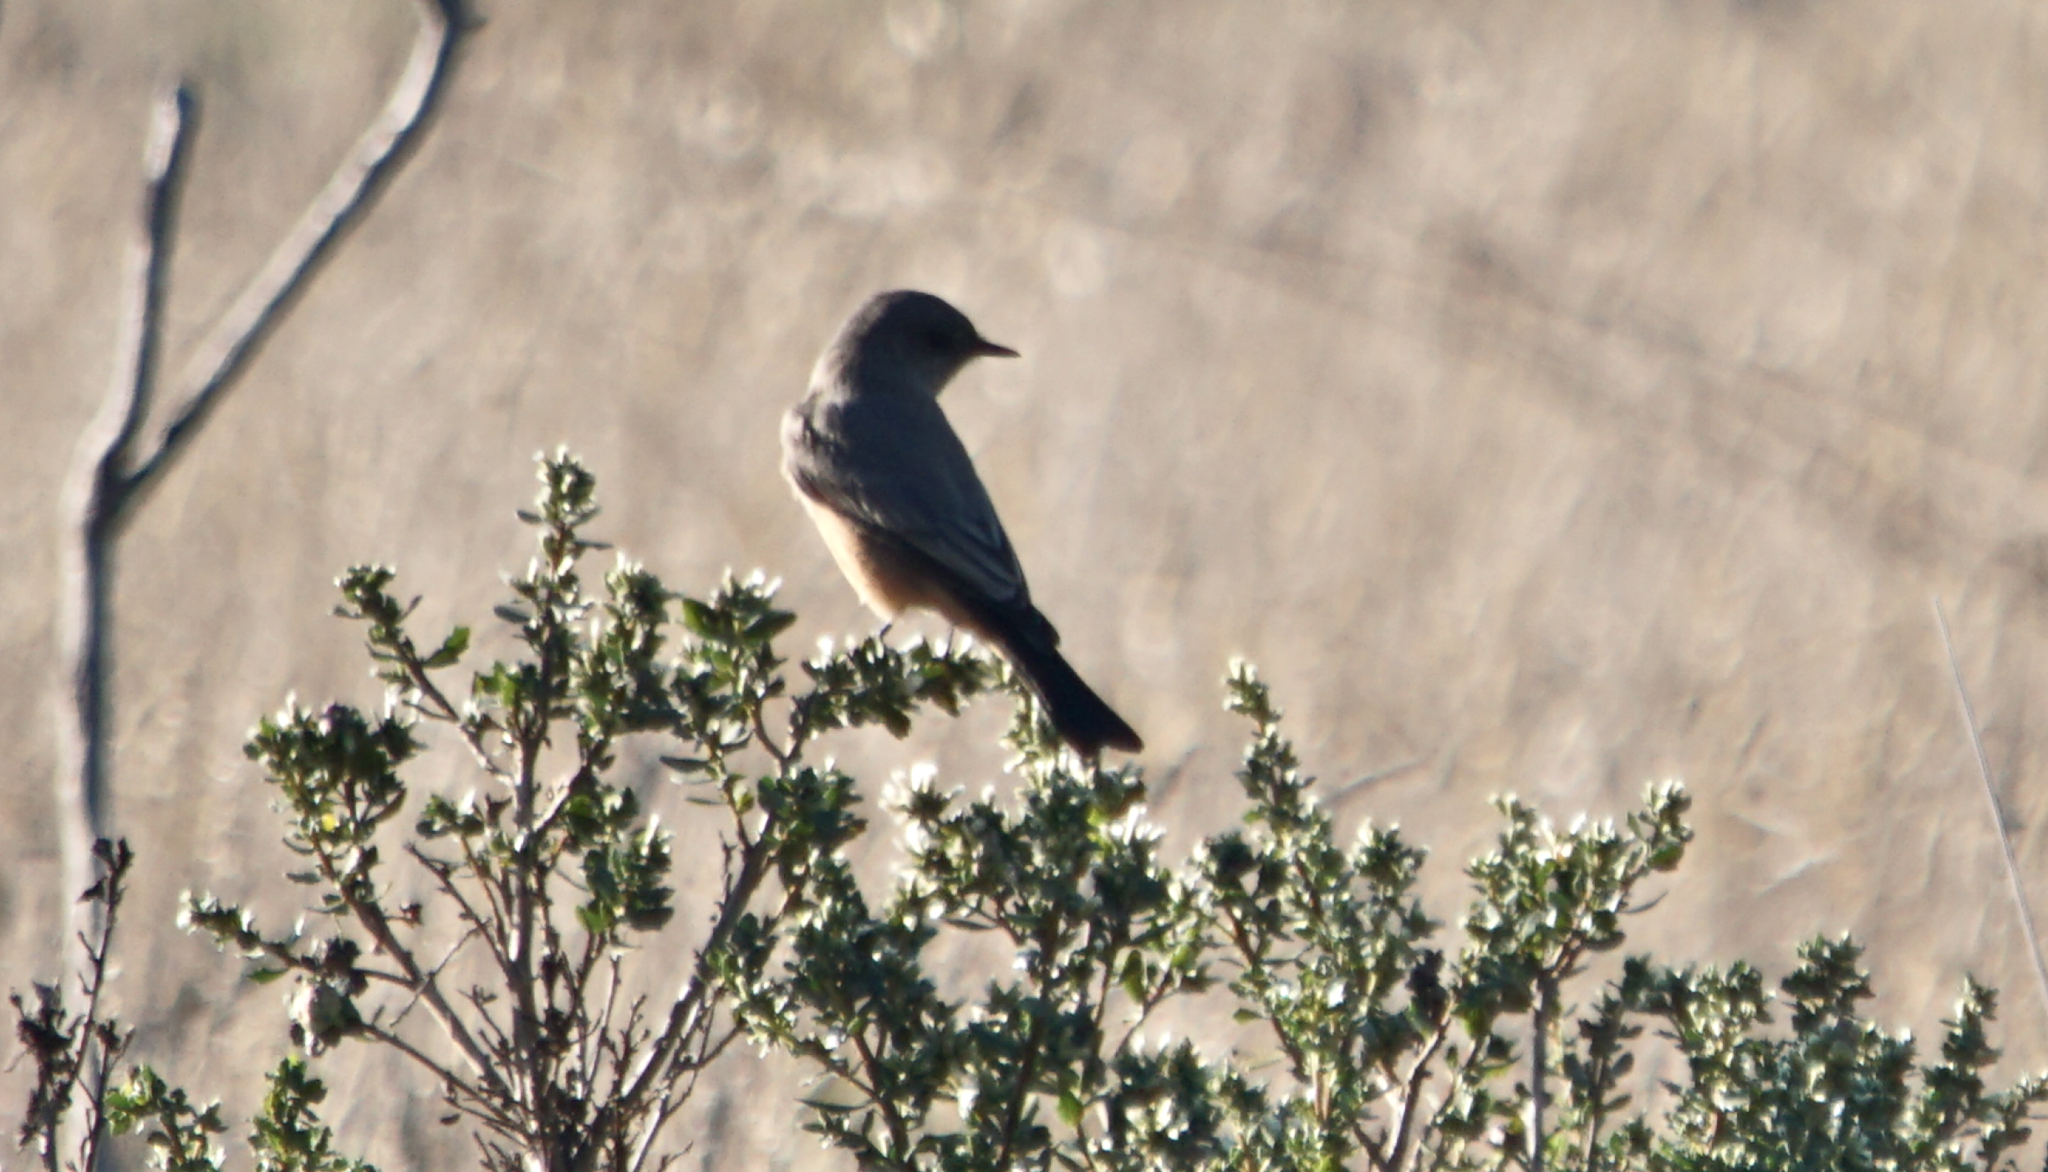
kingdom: Animalia
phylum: Chordata
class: Aves
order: Passeriformes
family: Tyrannidae
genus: Sayornis
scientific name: Sayornis saya
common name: Say's phoebe
